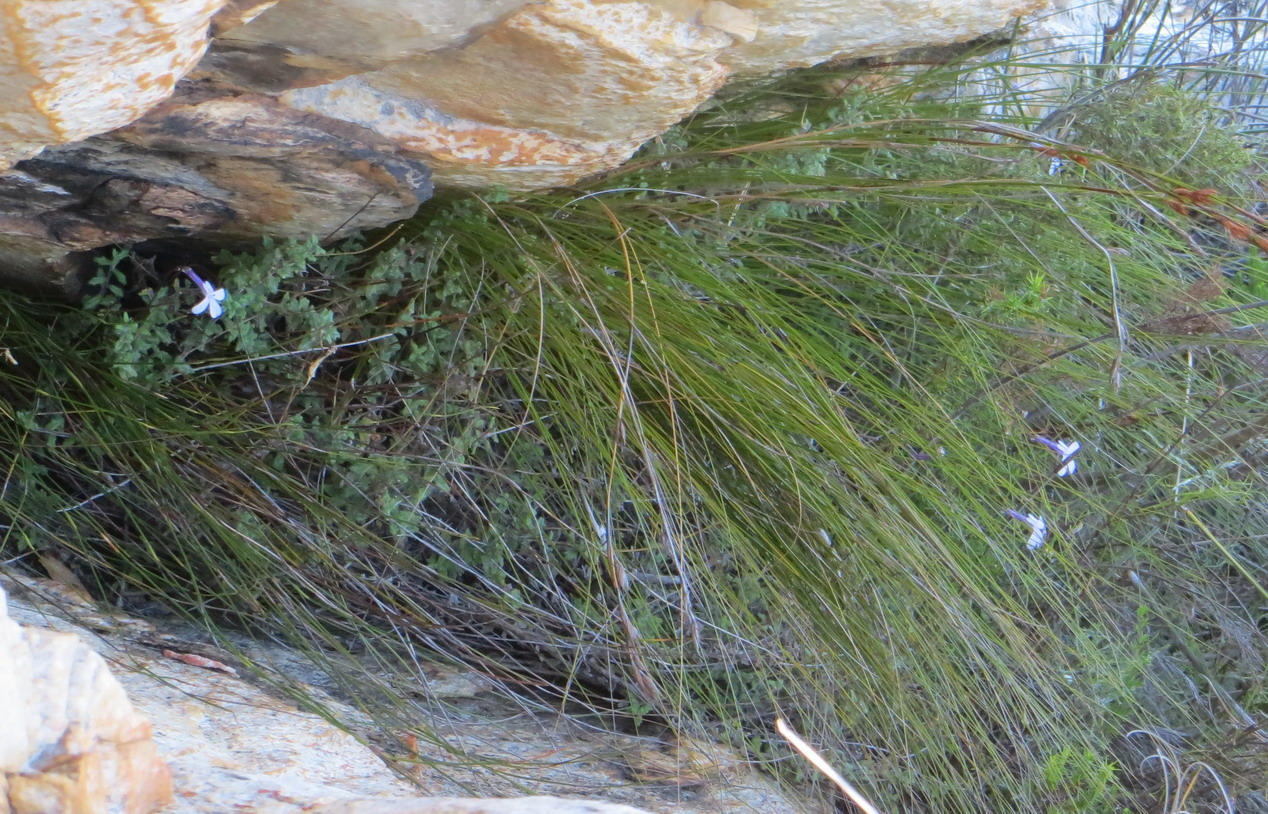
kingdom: Plantae
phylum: Tracheophyta
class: Magnoliopsida
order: Asterales
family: Campanulaceae
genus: Lobelia
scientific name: Lobelia dichroma
